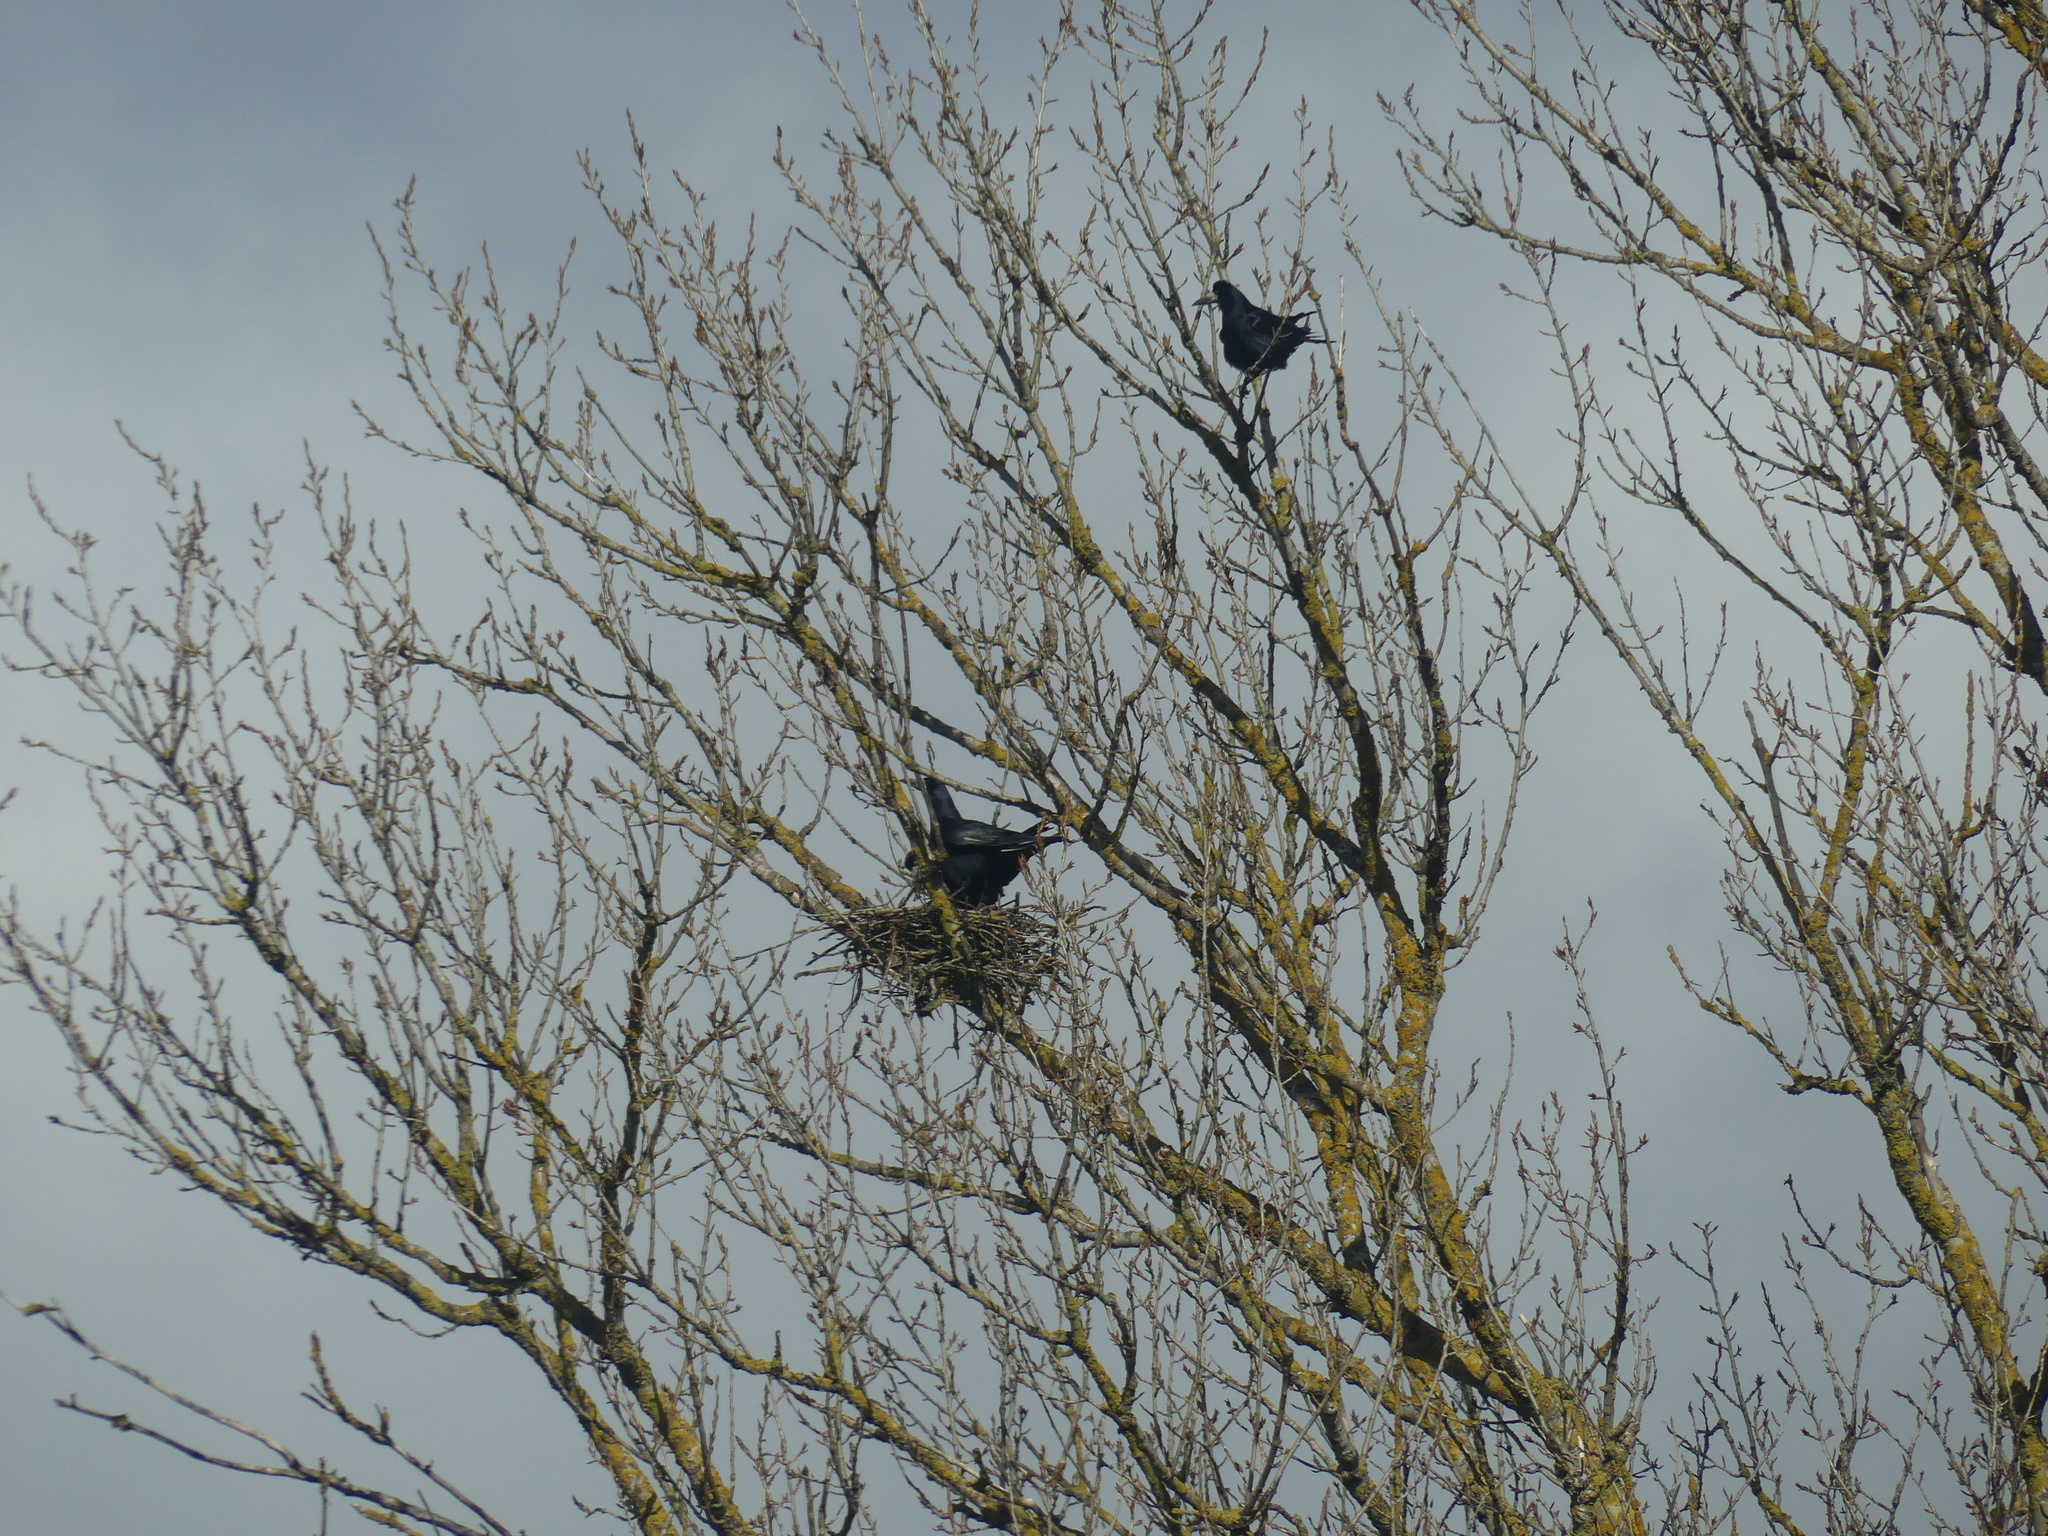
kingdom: Animalia
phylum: Chordata
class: Aves
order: Passeriformes
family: Corvidae
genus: Corvus
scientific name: Corvus frugilegus
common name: Rook
